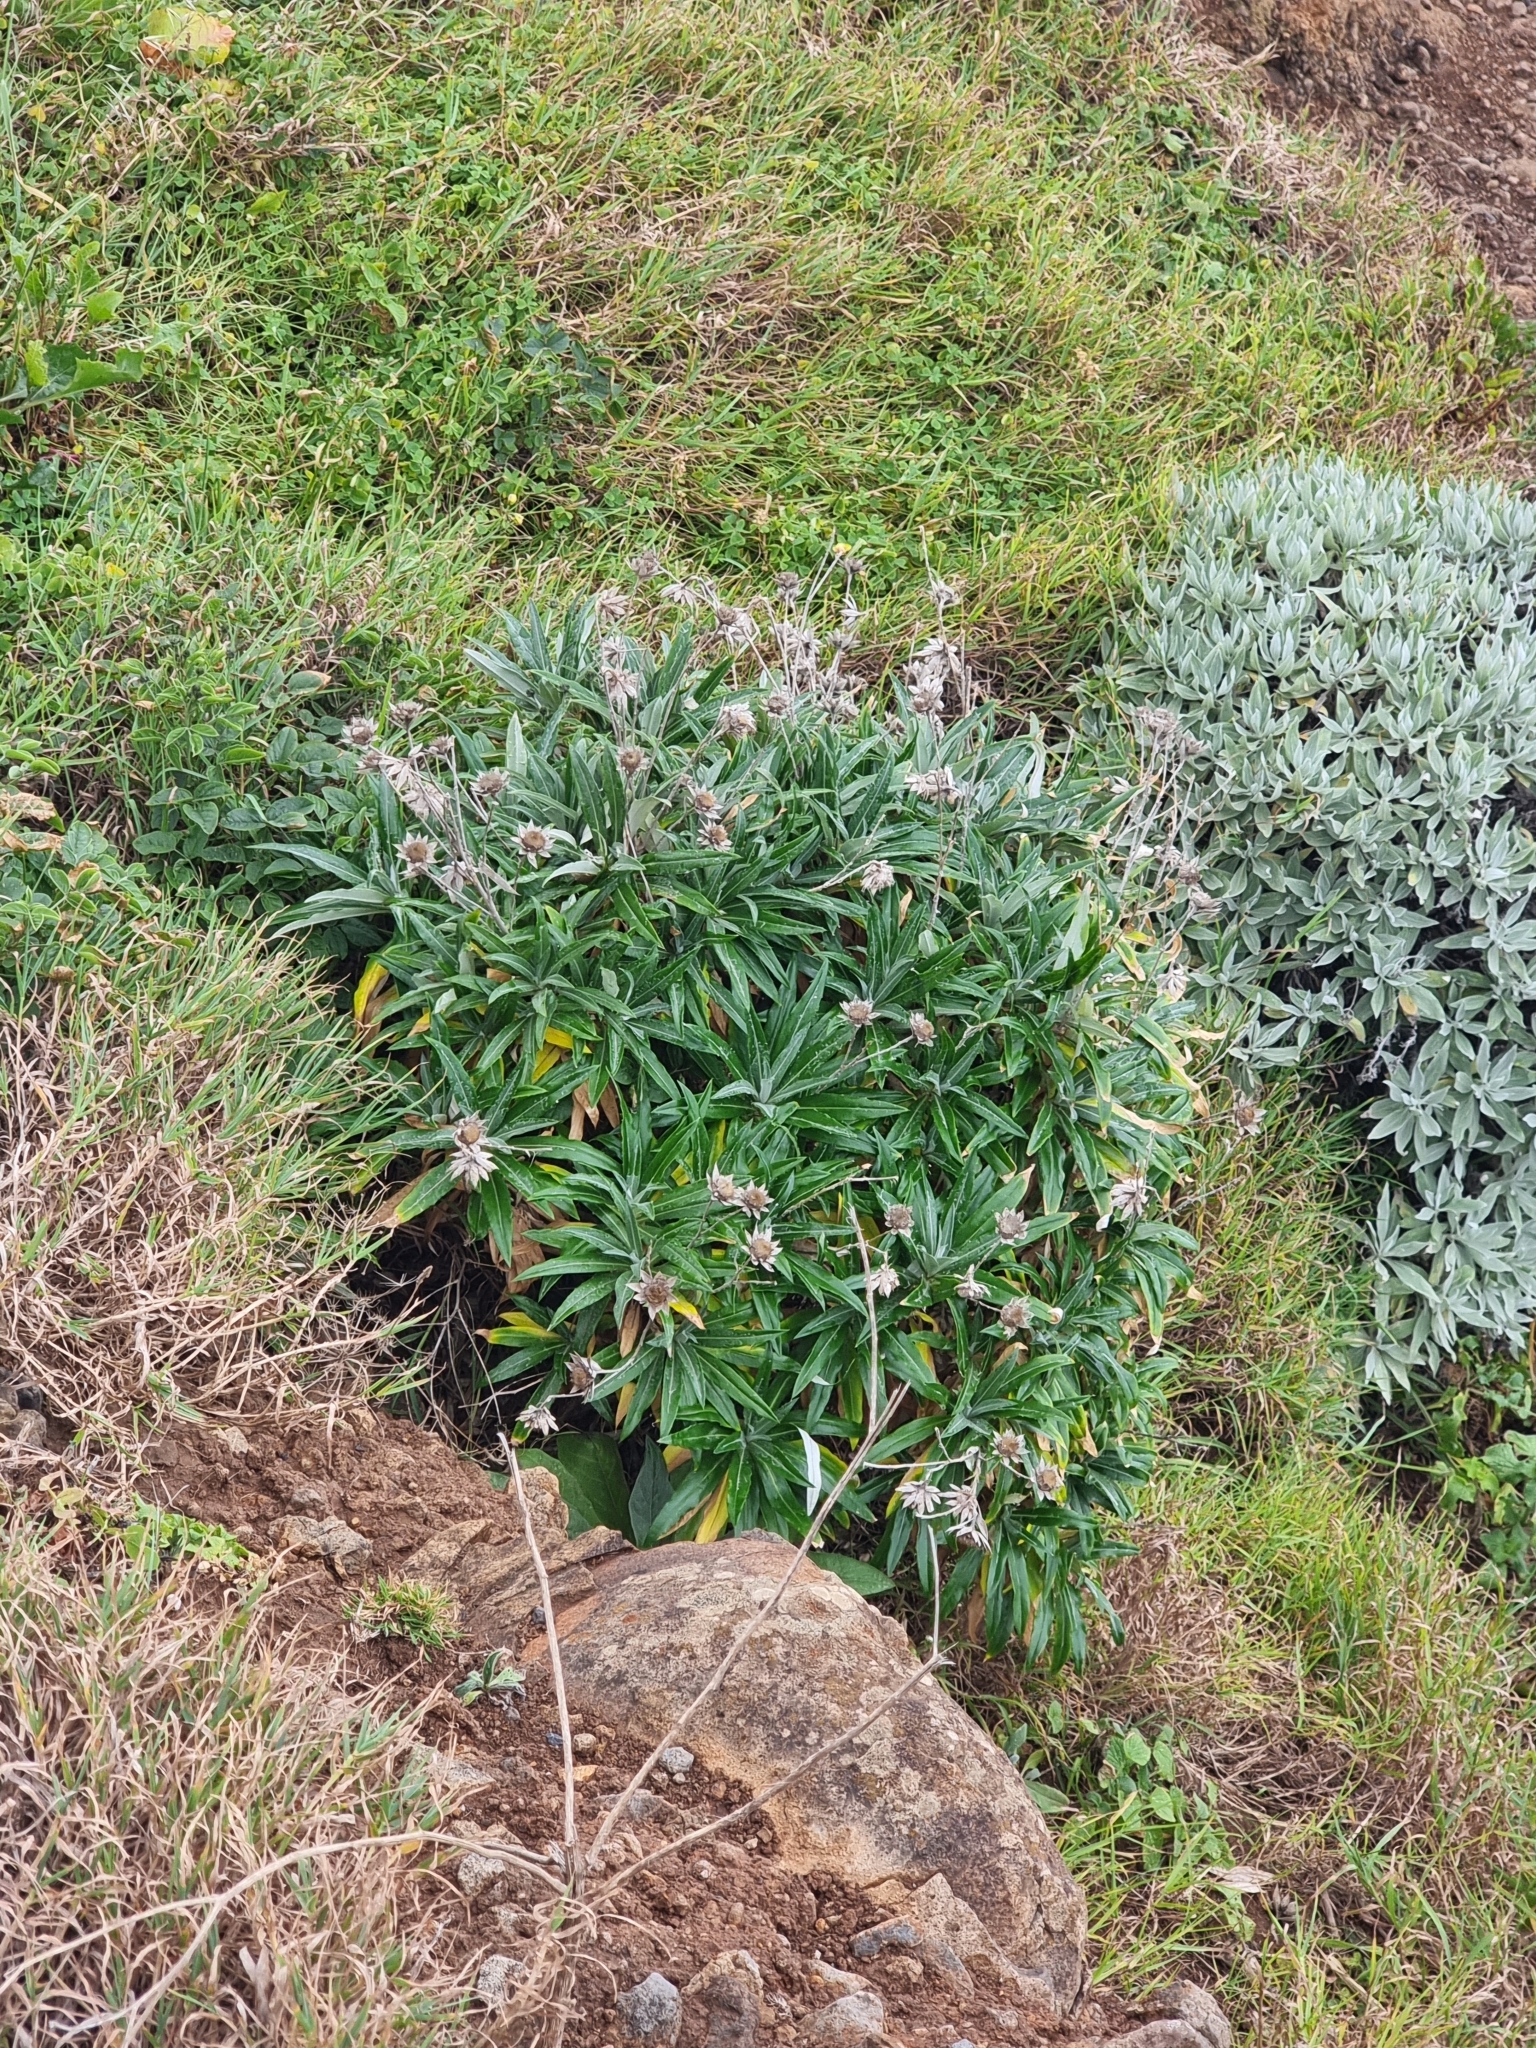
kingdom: Plantae
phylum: Tracheophyta
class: Magnoliopsida
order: Asterales
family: Asteraceae
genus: Carlina
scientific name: Carlina salicifolia
